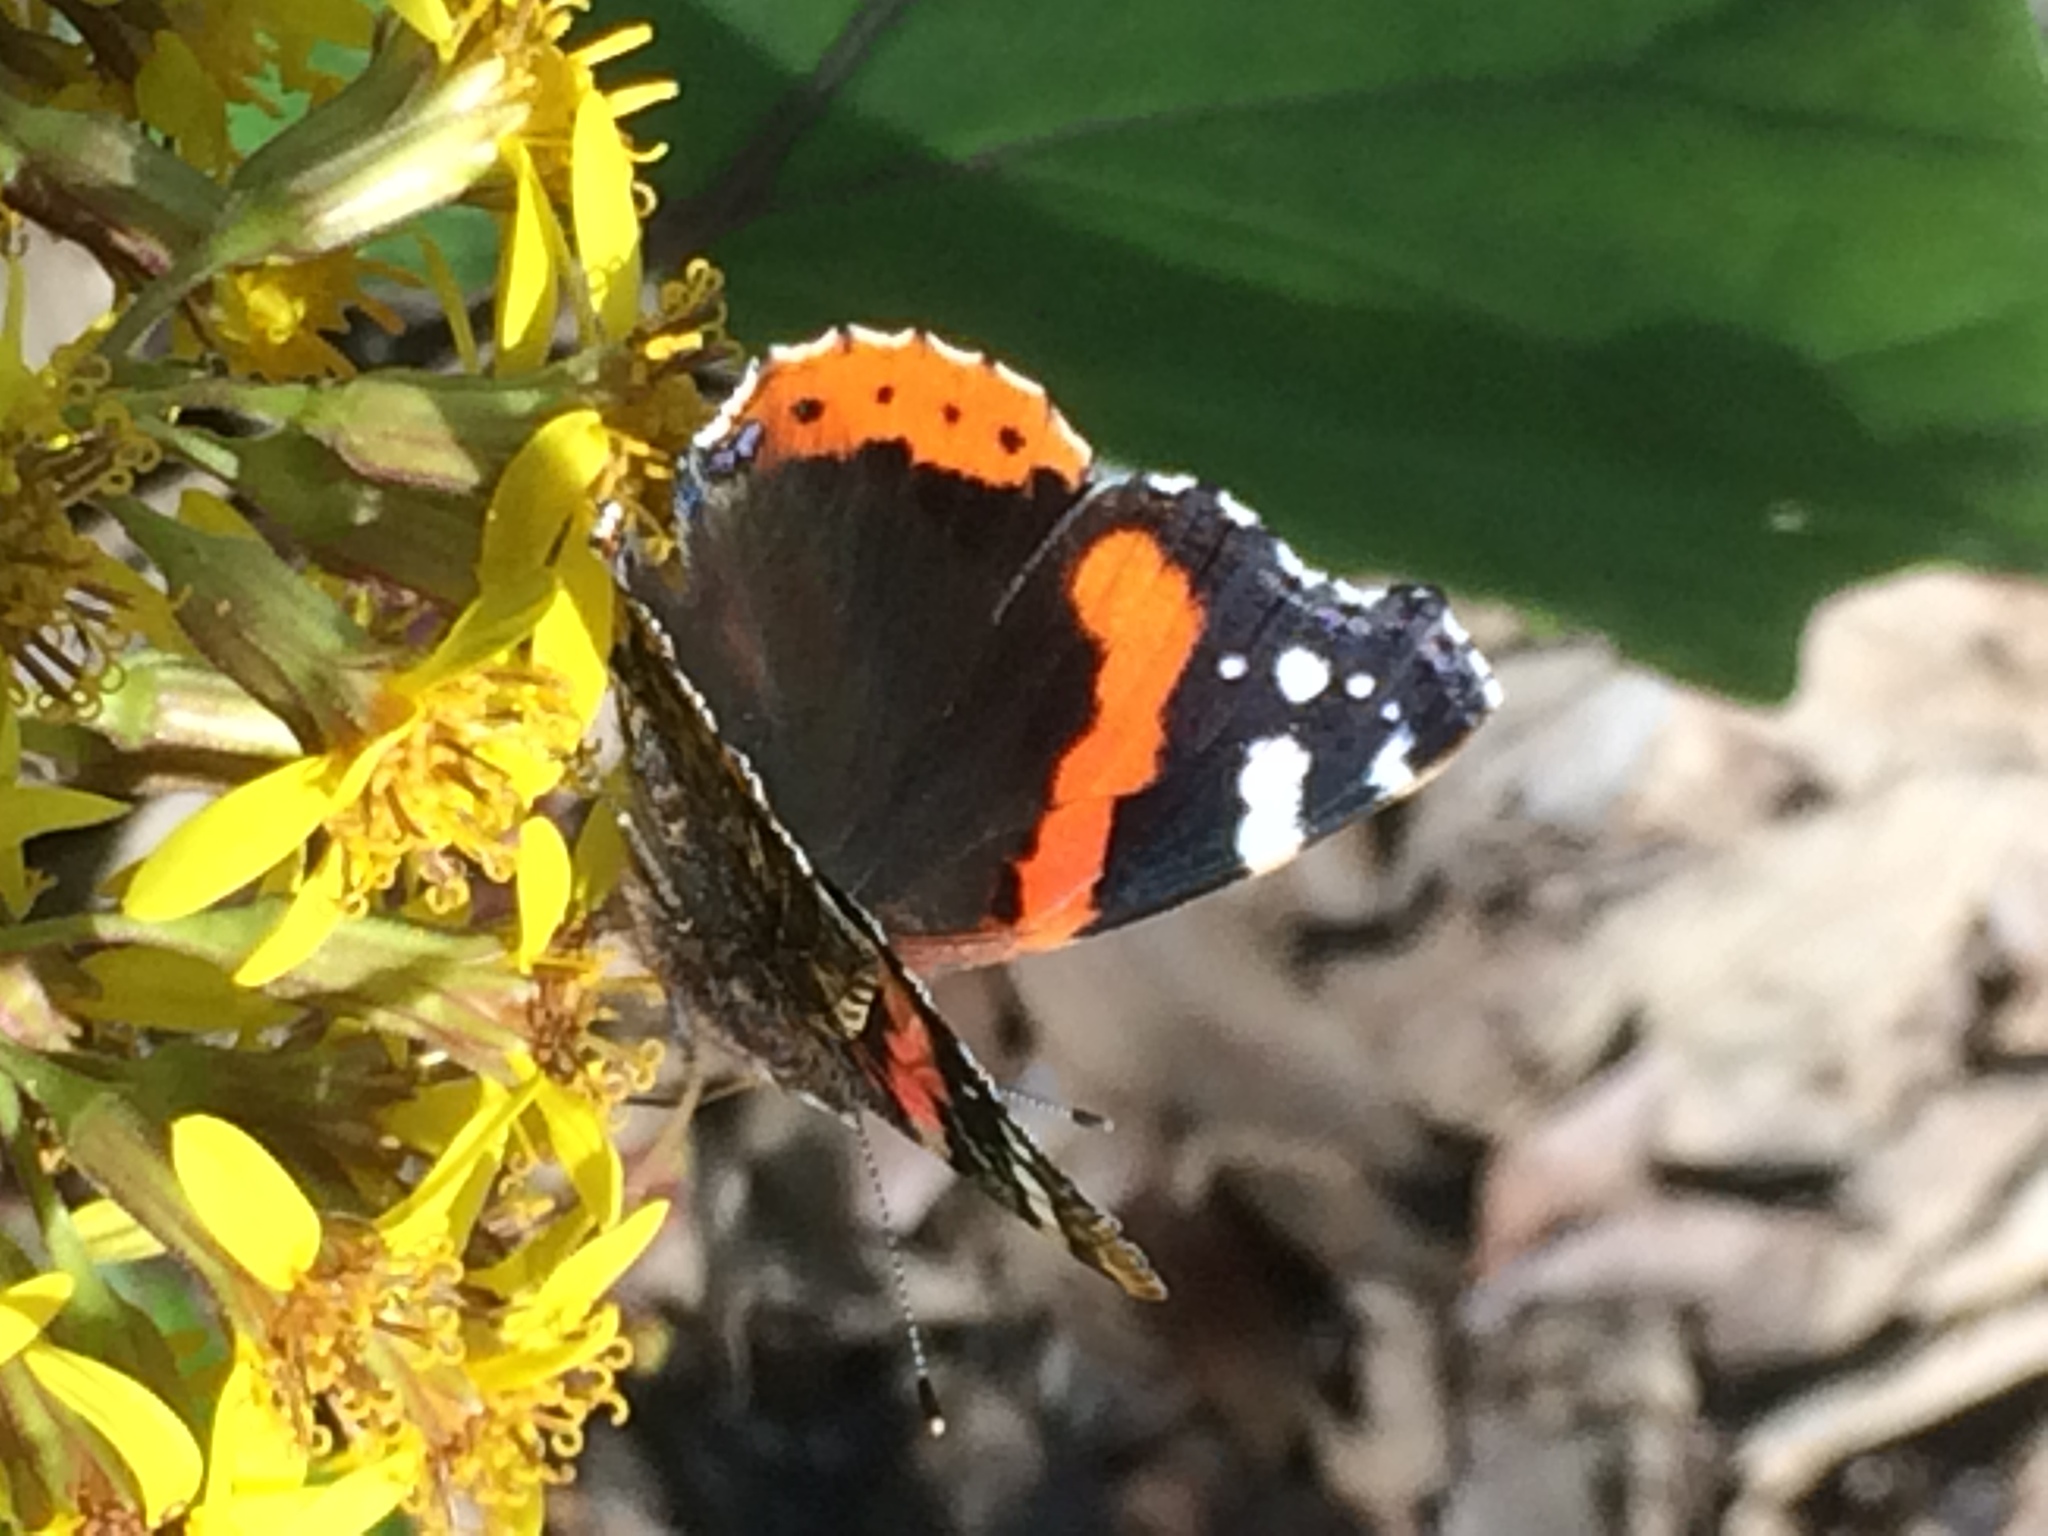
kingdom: Animalia
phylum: Arthropoda
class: Insecta
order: Lepidoptera
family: Nymphalidae
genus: Vanessa
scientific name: Vanessa atalanta
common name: Red admiral
